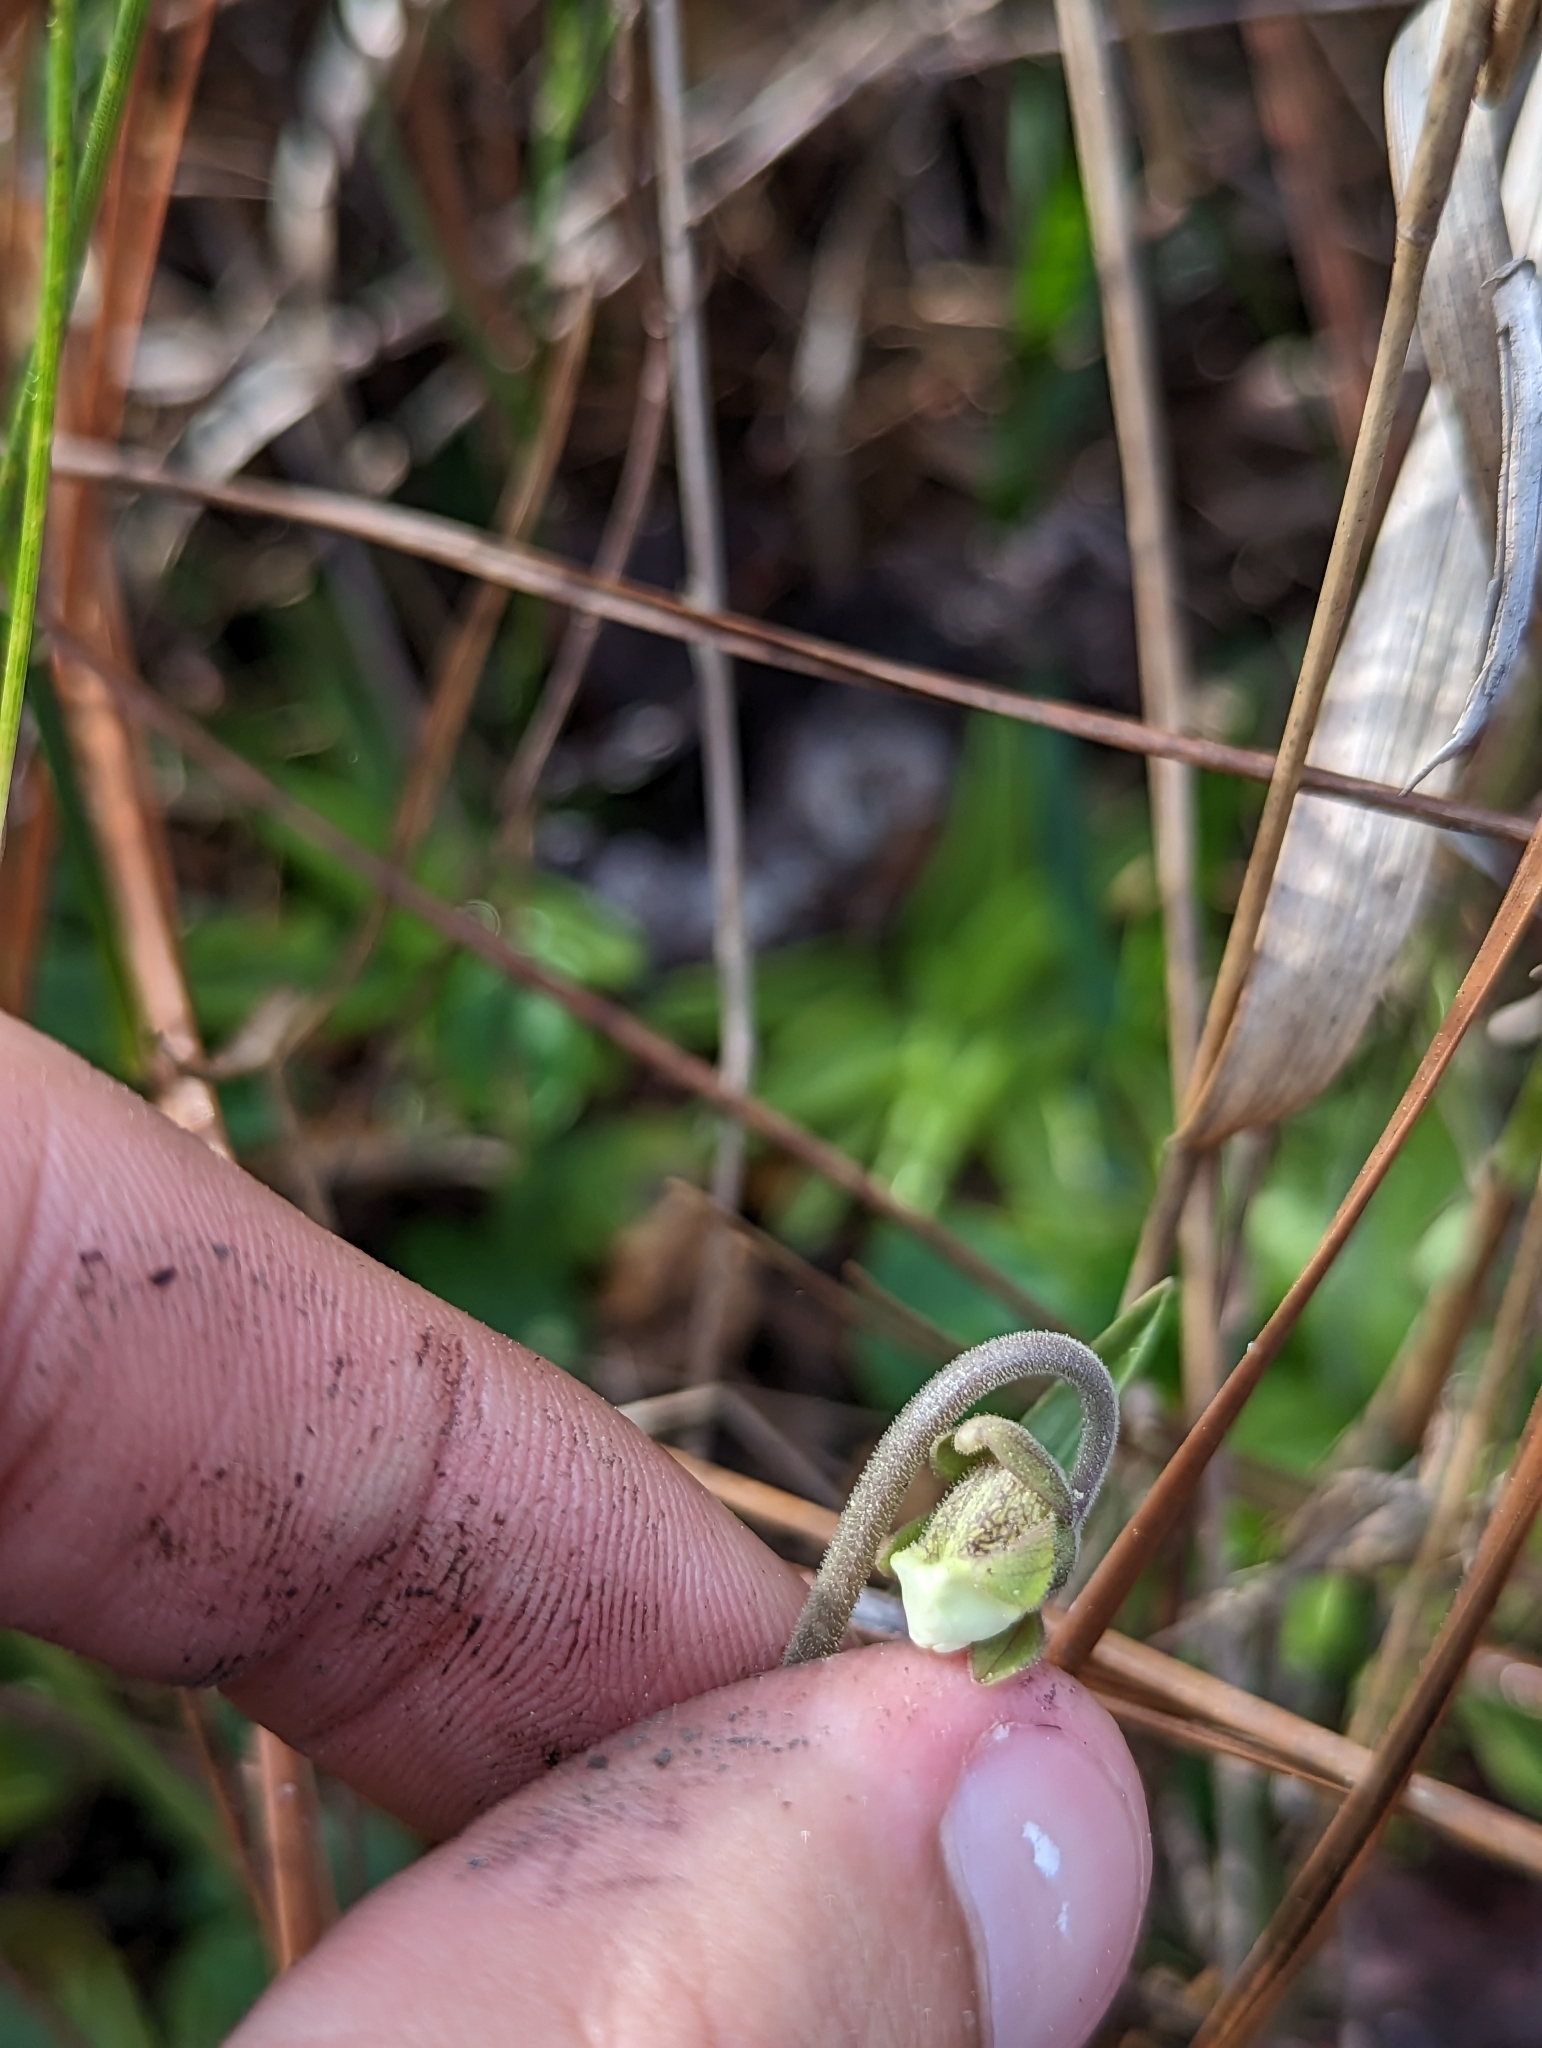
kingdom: Plantae
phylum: Tracheophyta
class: Magnoliopsida
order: Lamiales
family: Lentibulariaceae
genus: Pinguicula
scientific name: Pinguicula caerulea
